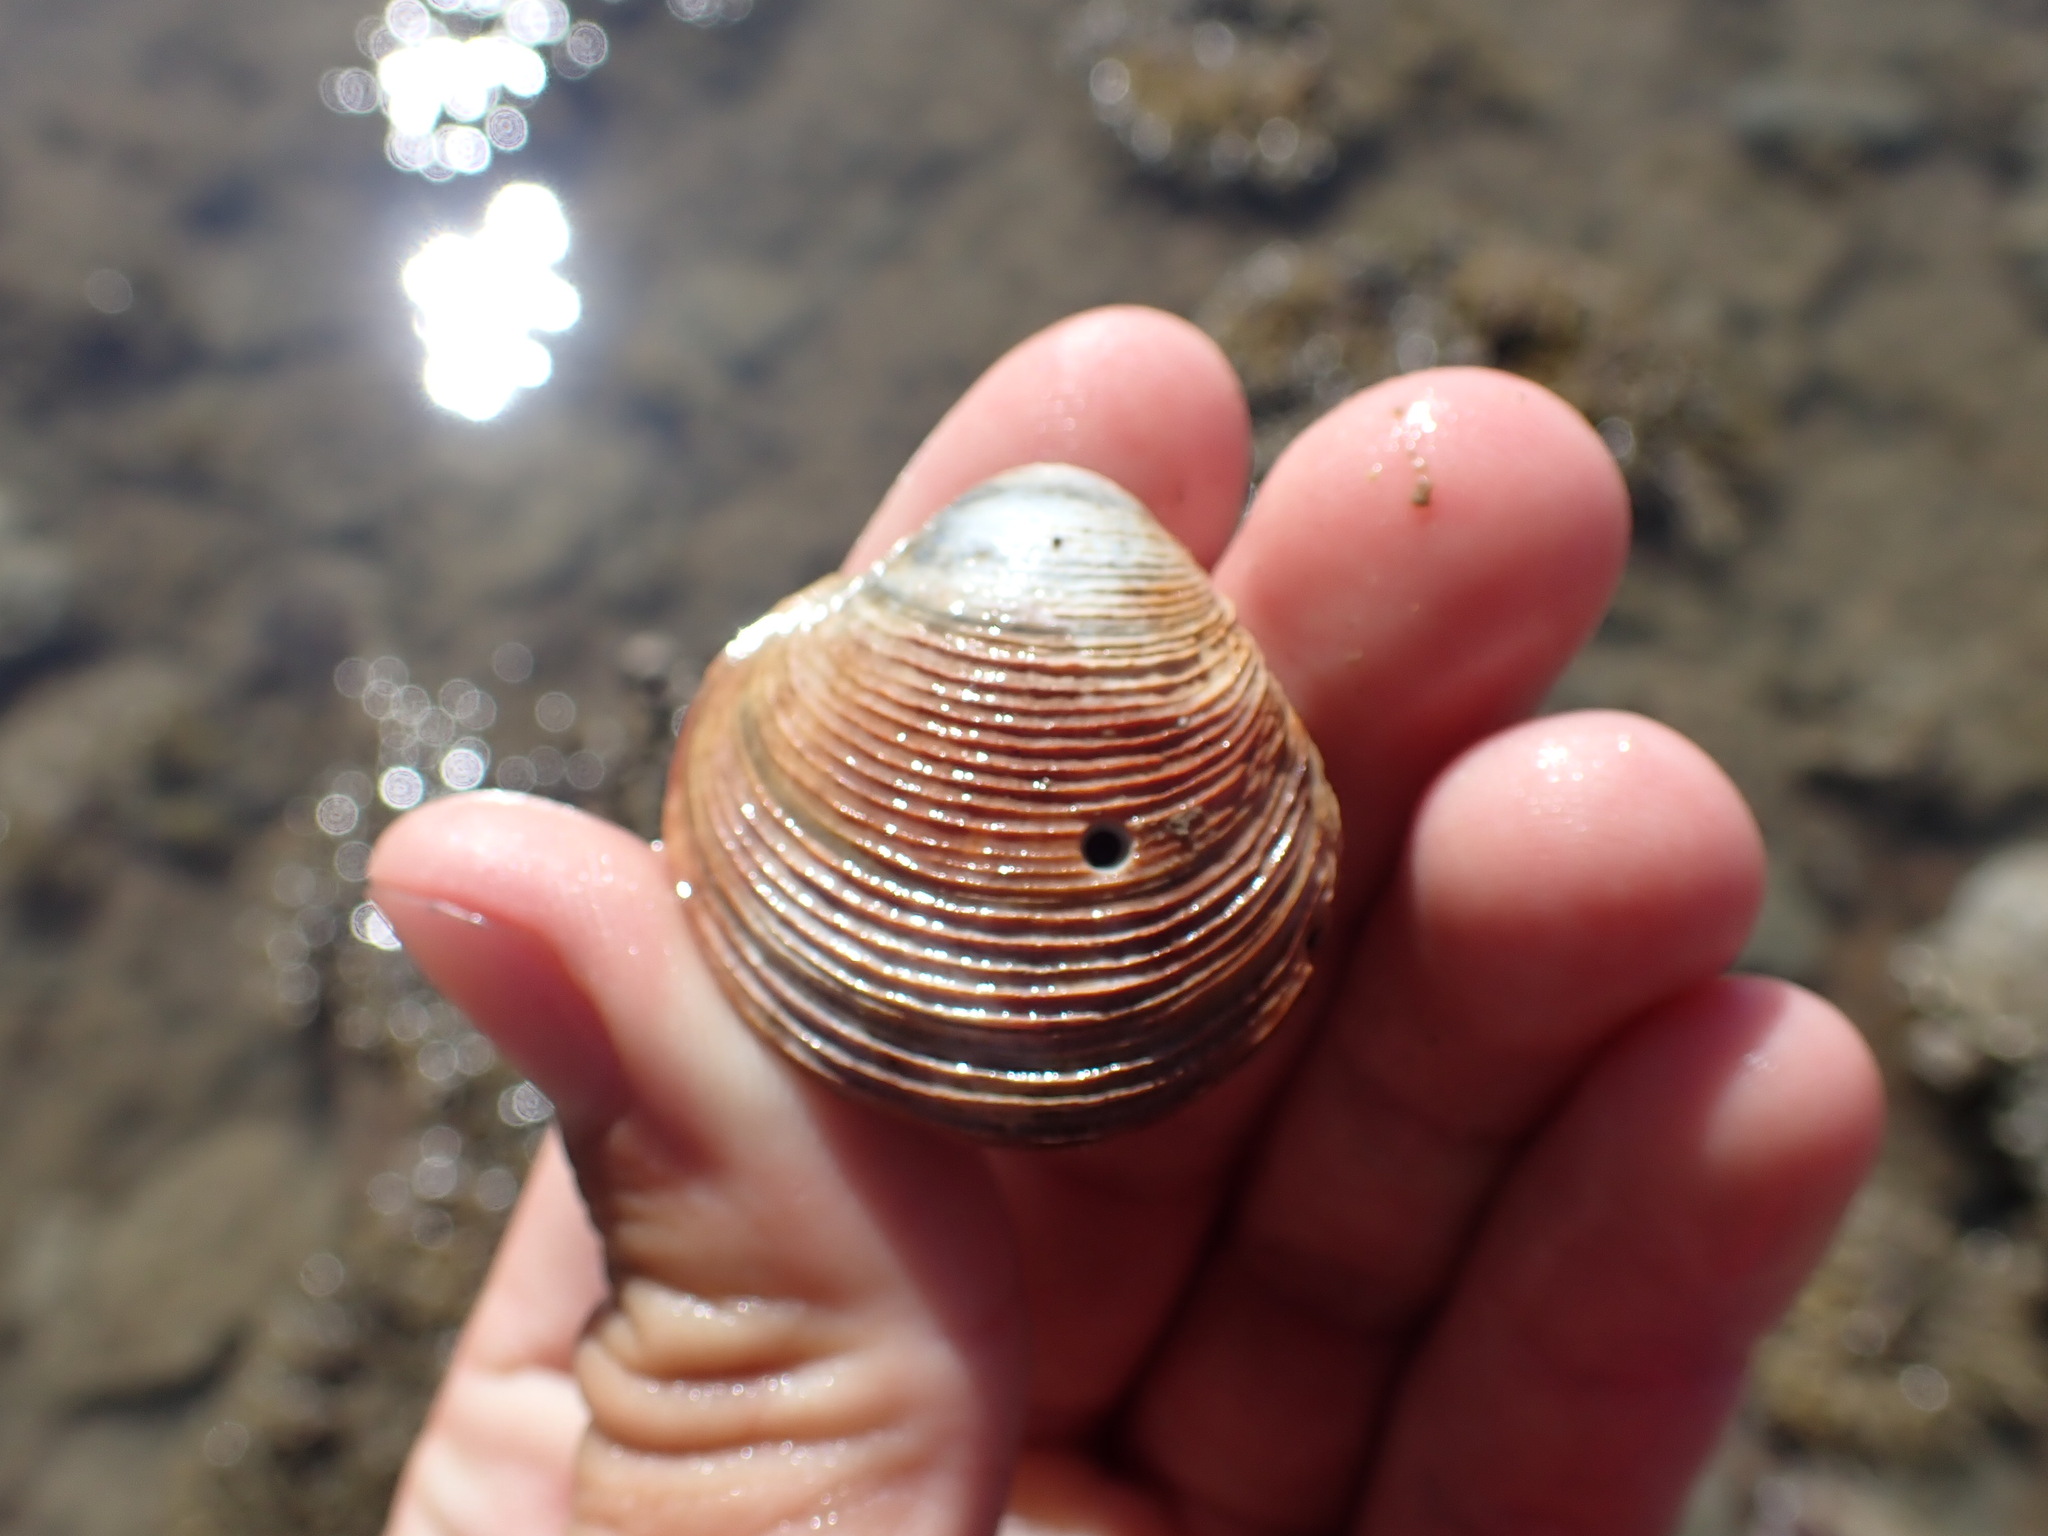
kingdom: Animalia
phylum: Mollusca
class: Bivalvia
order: Venerida
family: Veneridae
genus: Dosina
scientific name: Dosina mactracea
